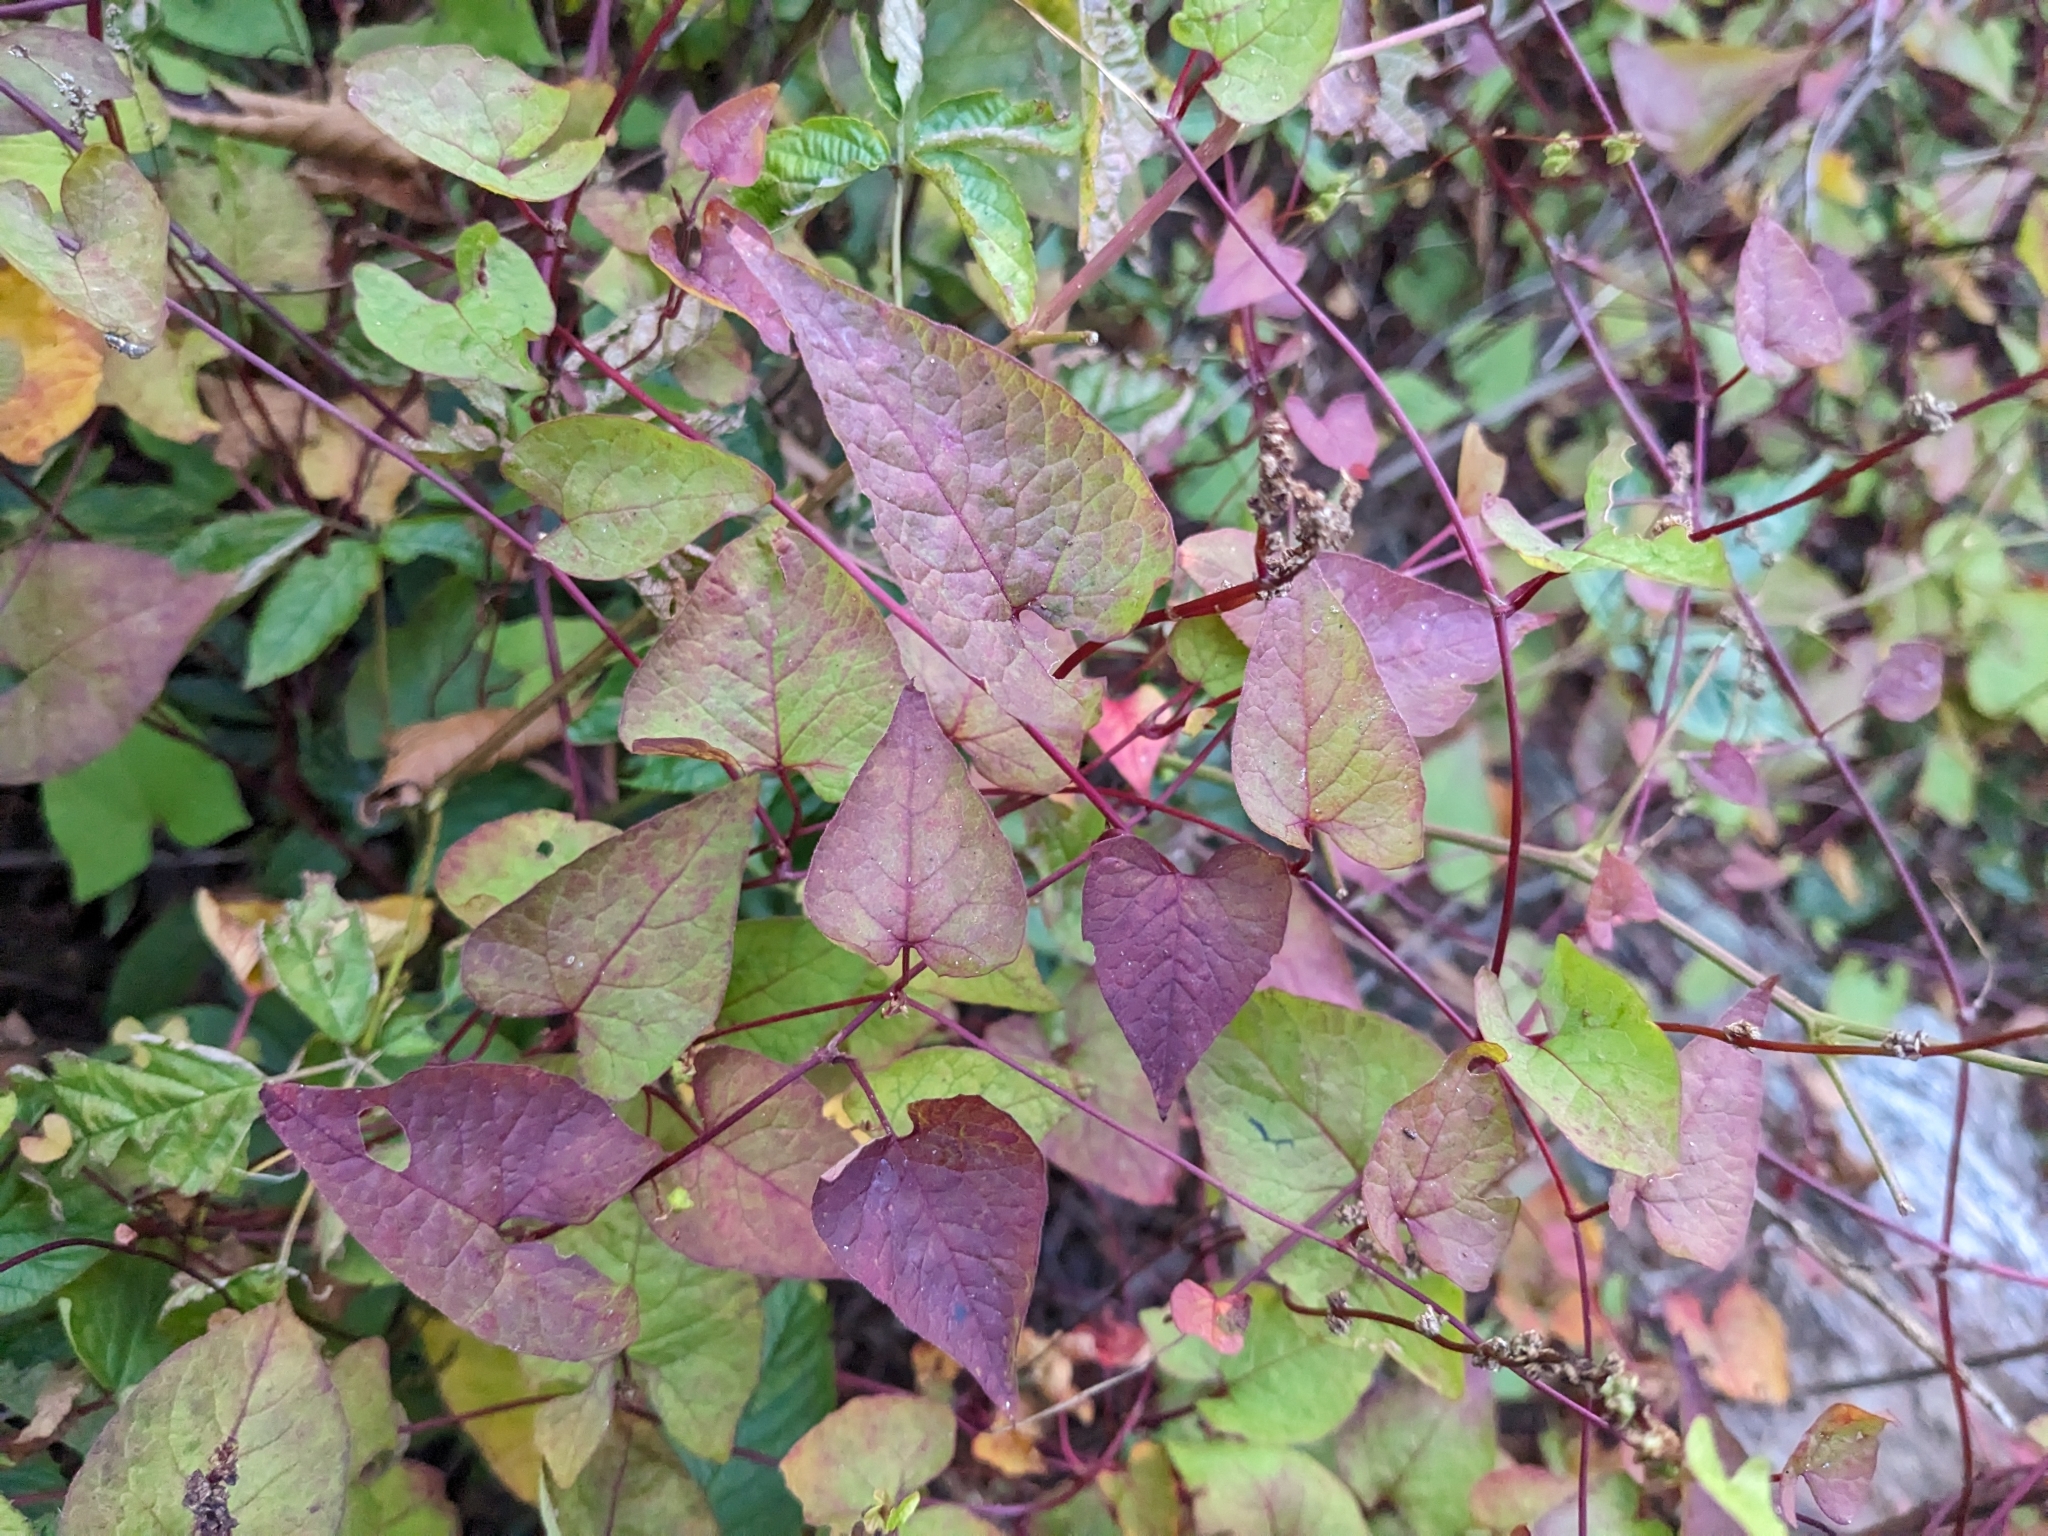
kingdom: Plantae
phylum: Tracheophyta
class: Magnoliopsida
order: Caryophyllales
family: Polygonaceae
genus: Parogonum
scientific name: Parogonum ciliinode
